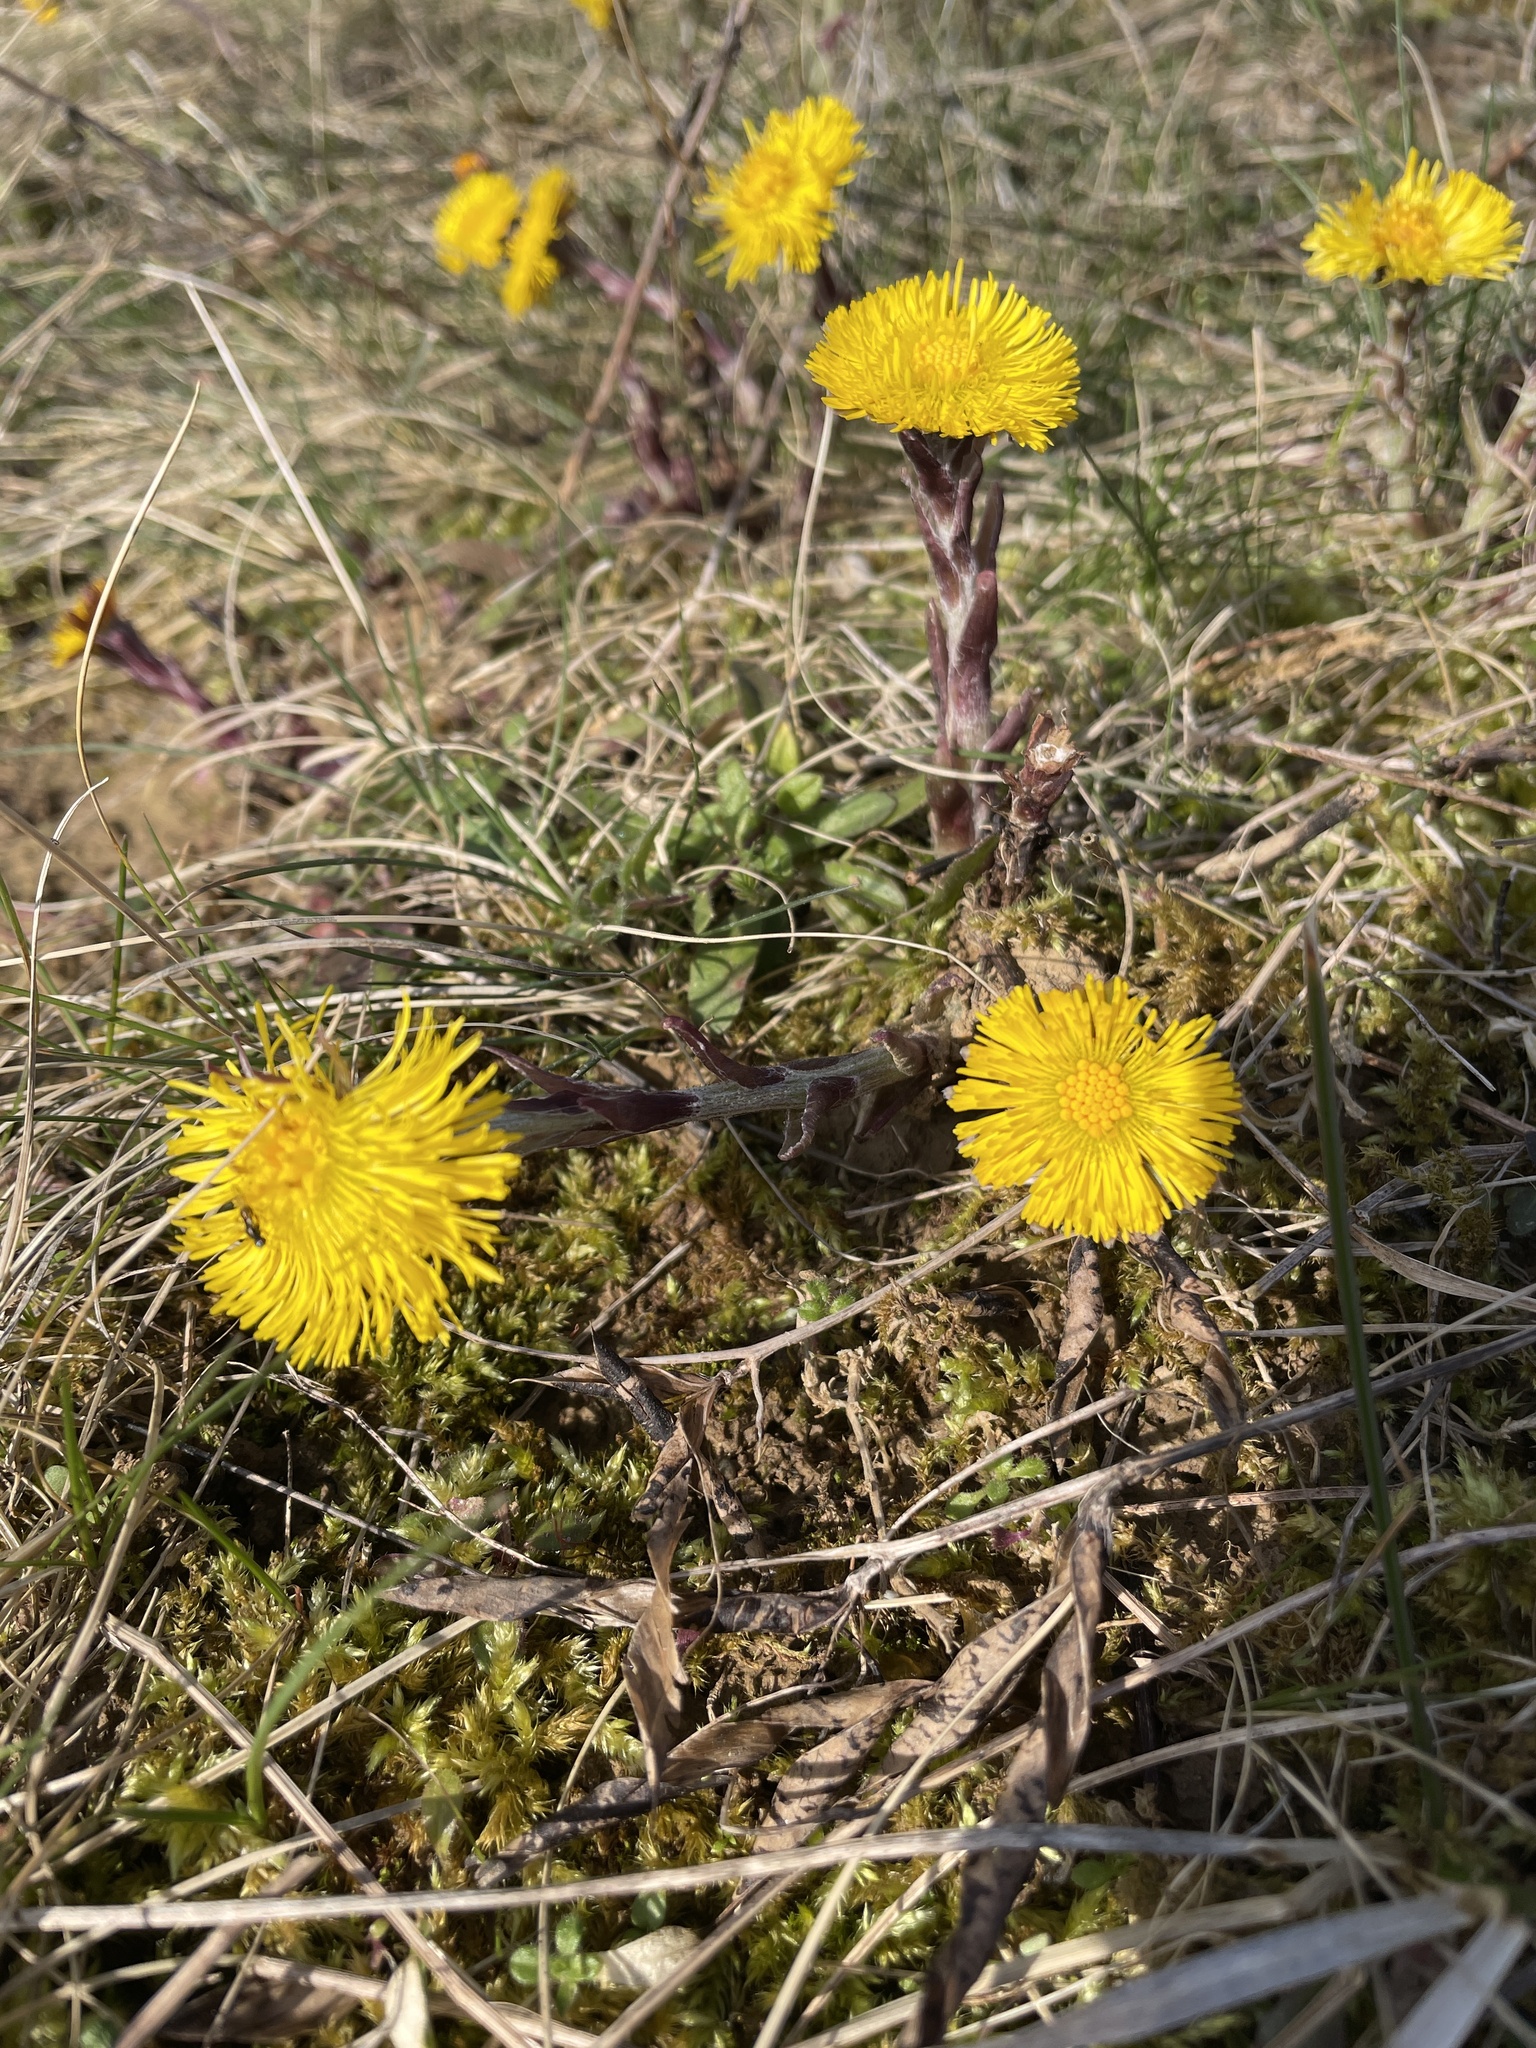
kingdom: Plantae
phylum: Tracheophyta
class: Magnoliopsida
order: Asterales
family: Asteraceae
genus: Tussilago
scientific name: Tussilago farfara
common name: Coltsfoot
